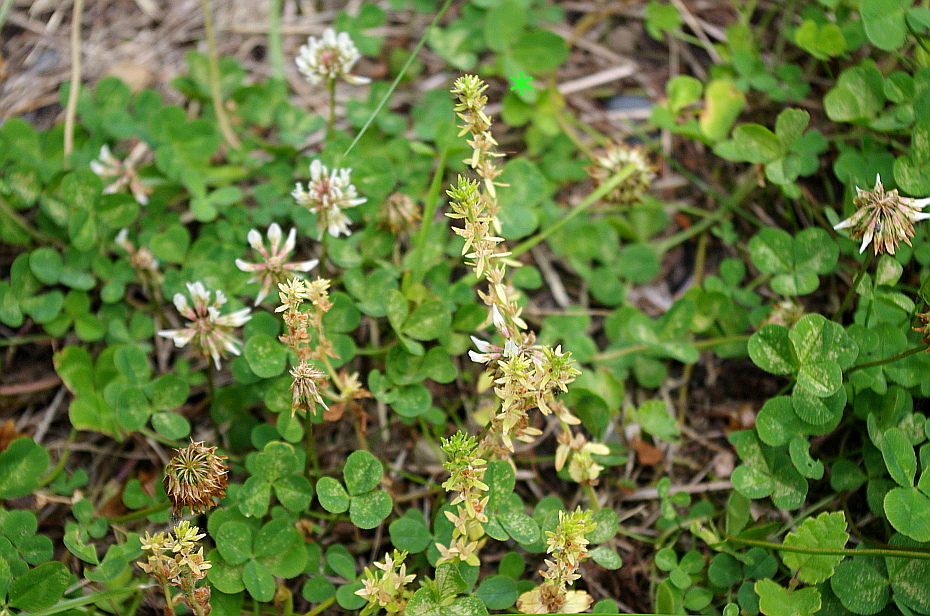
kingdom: Plantae
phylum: Tracheophyta
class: Magnoliopsida
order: Lamiales
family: Plantaginaceae
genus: Veronica
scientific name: Veronica arvensis
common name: Corn speedwell
